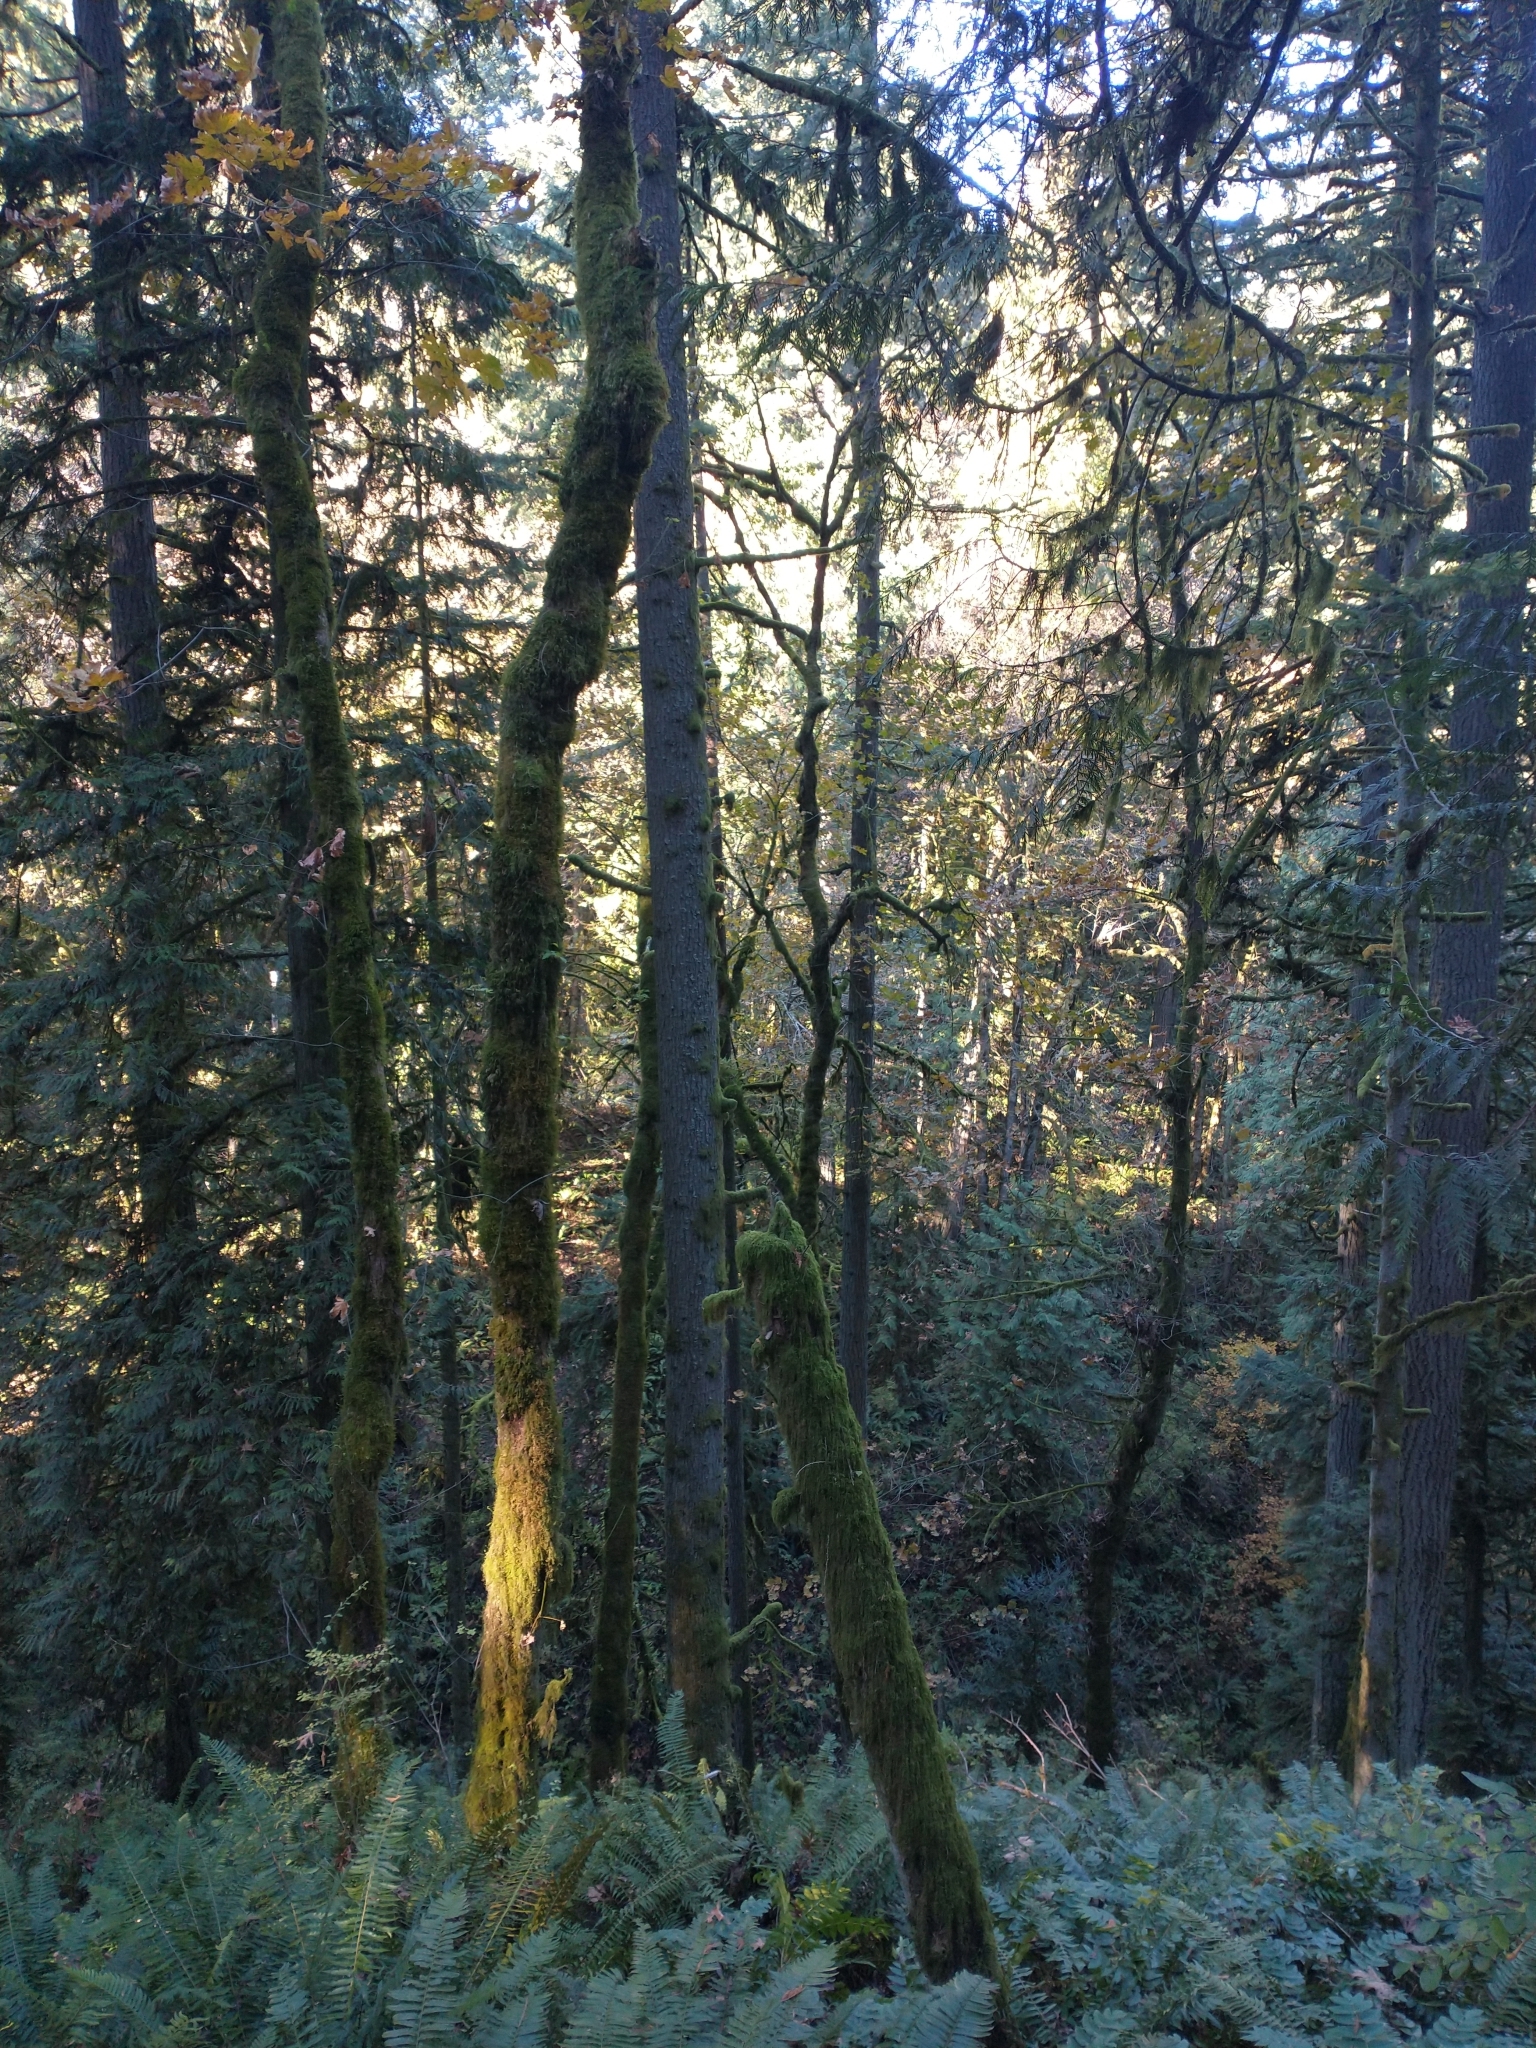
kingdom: Plantae
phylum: Tracheophyta
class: Pinopsida
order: Pinales
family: Pinaceae
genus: Tsuga
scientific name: Tsuga heterophylla
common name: Western hemlock
